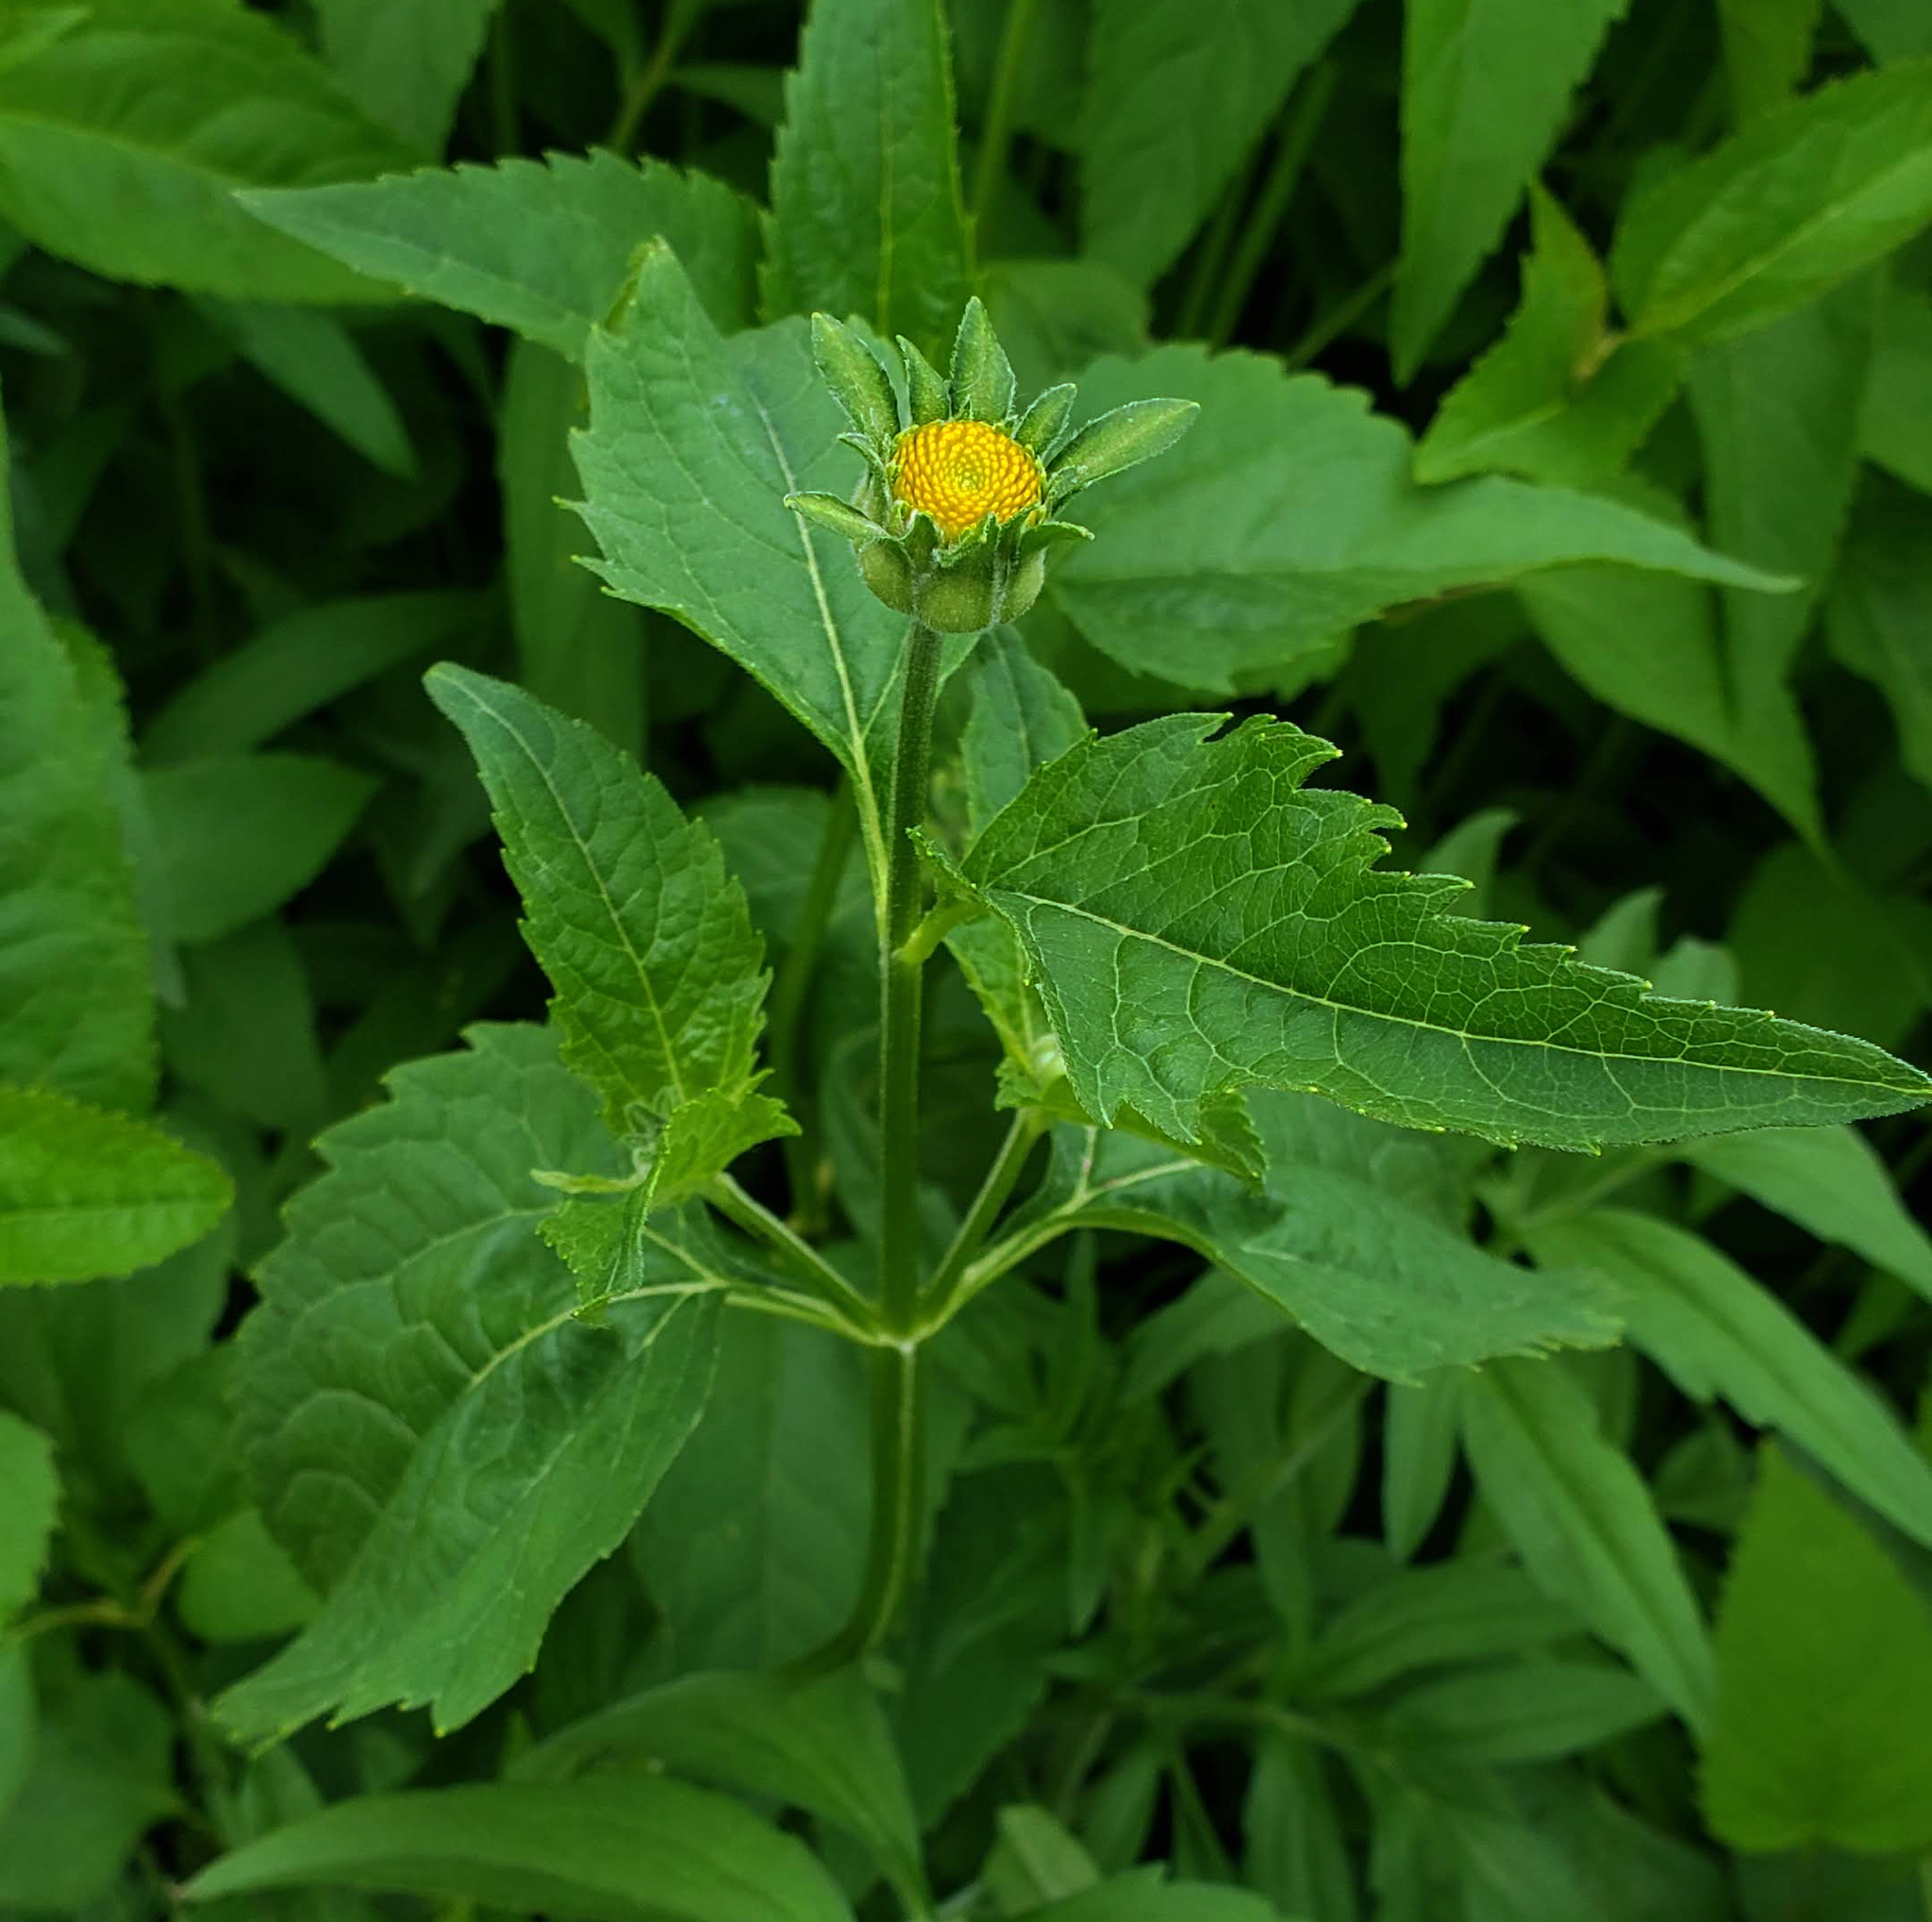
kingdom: Plantae
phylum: Tracheophyta
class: Magnoliopsida
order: Asterales
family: Asteraceae
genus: Heliopsis
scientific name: Heliopsis helianthoides
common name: False sunflower
